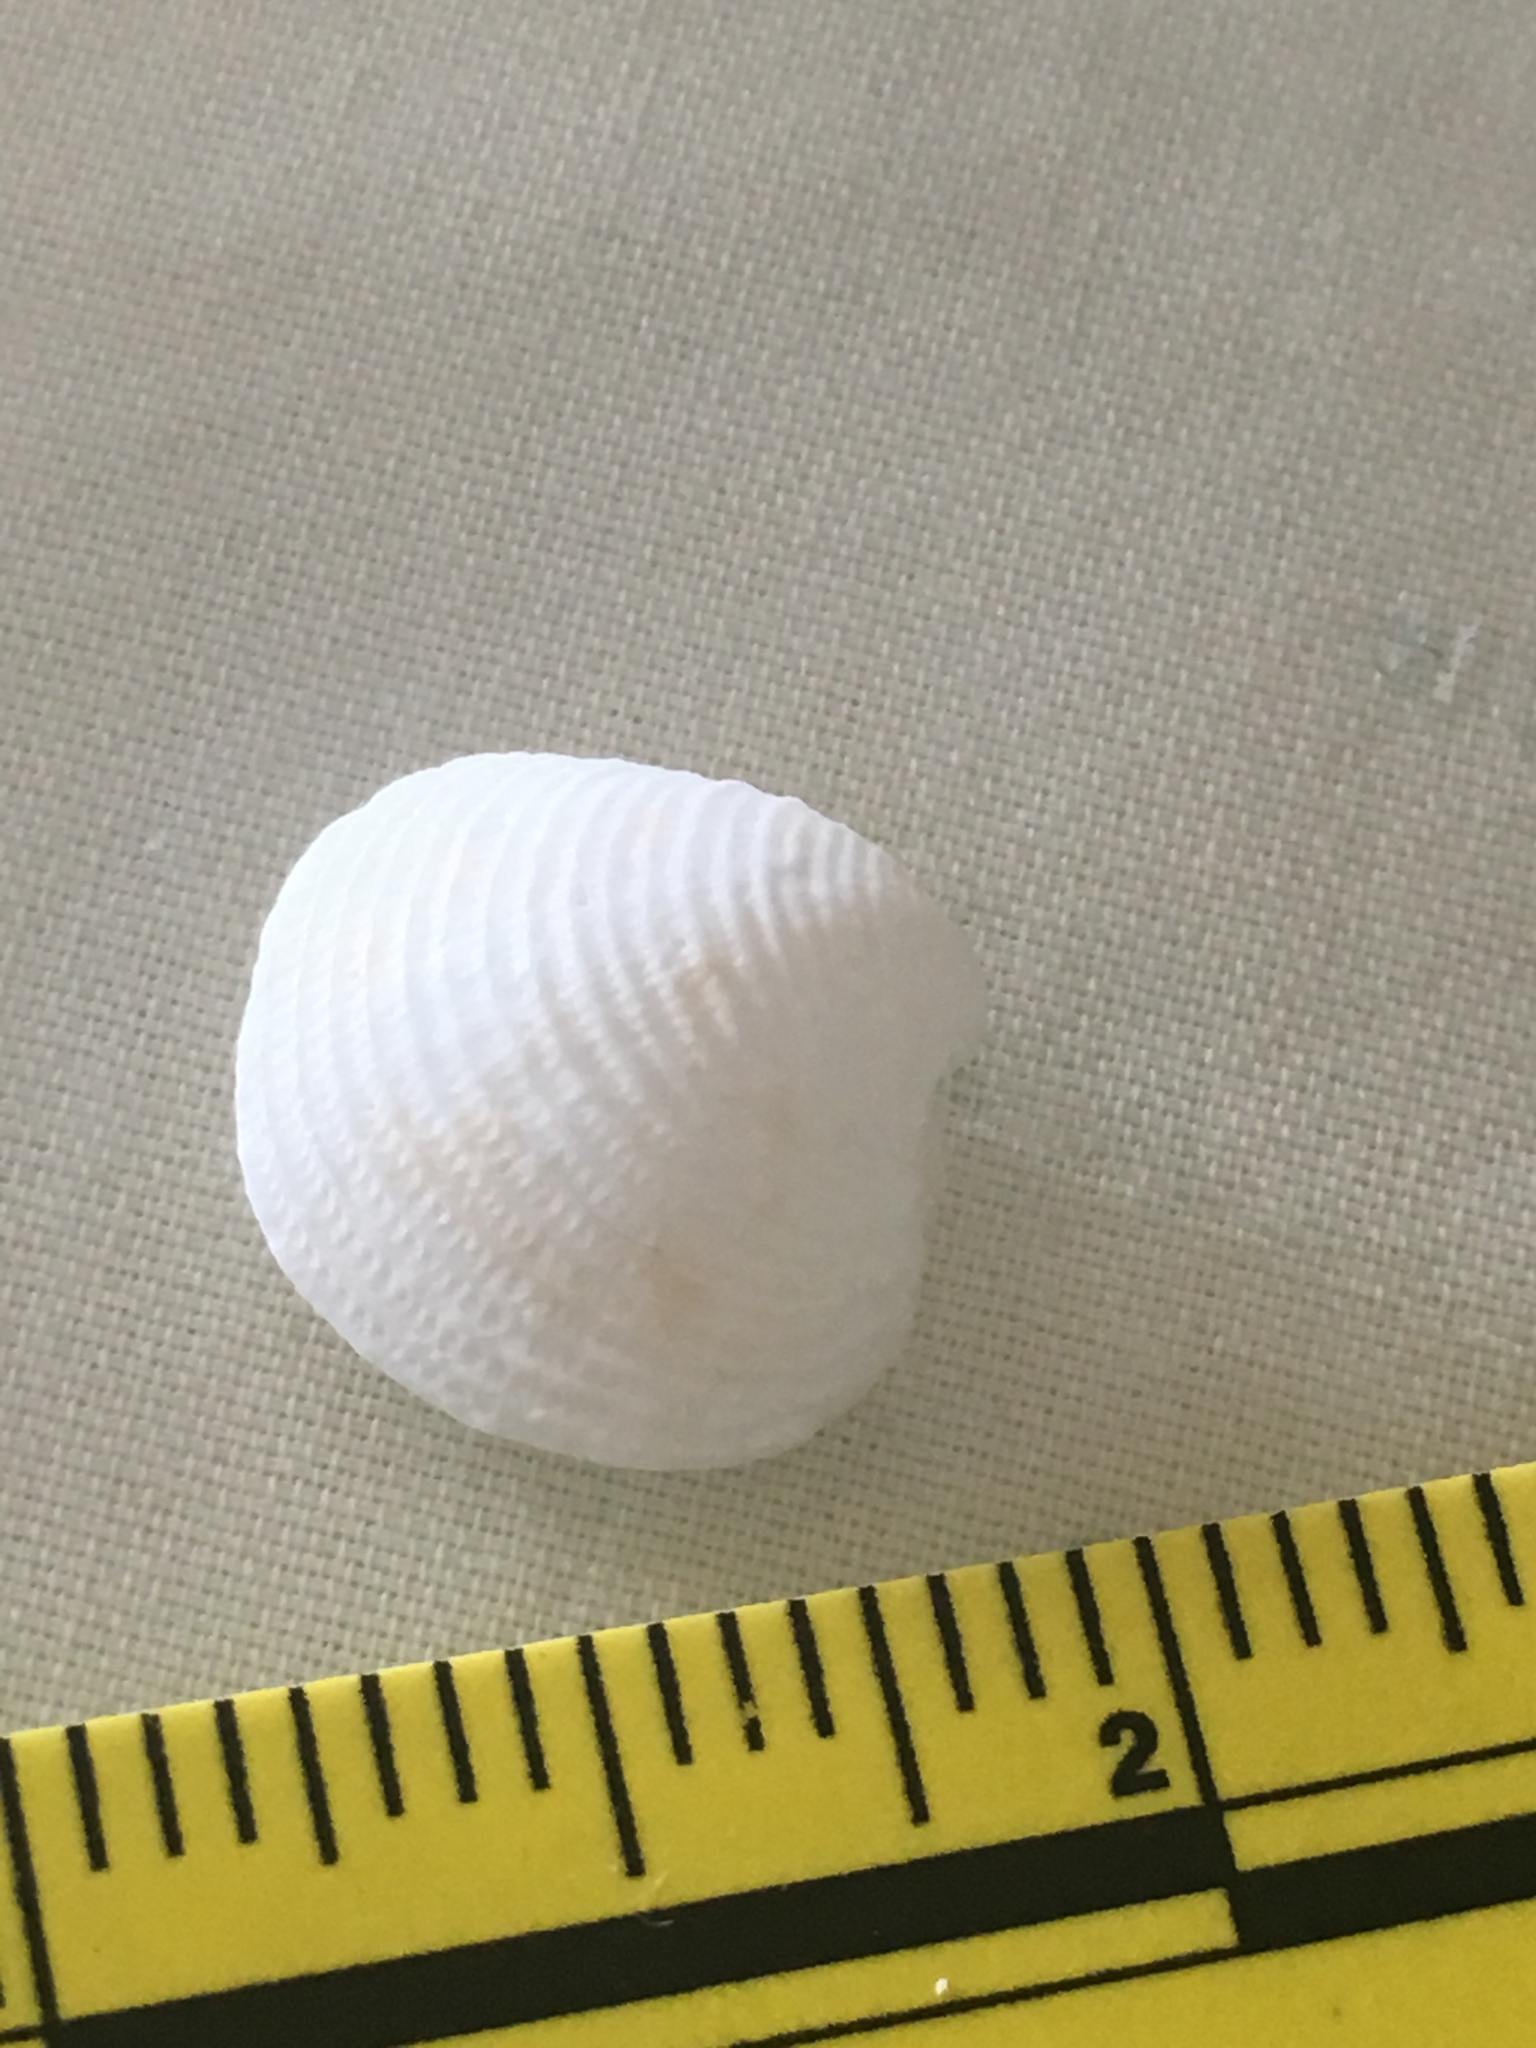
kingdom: Animalia
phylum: Mollusca
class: Bivalvia
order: Venerida
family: Veneridae
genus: Chionopsis
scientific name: Chionopsis intapurpurea
